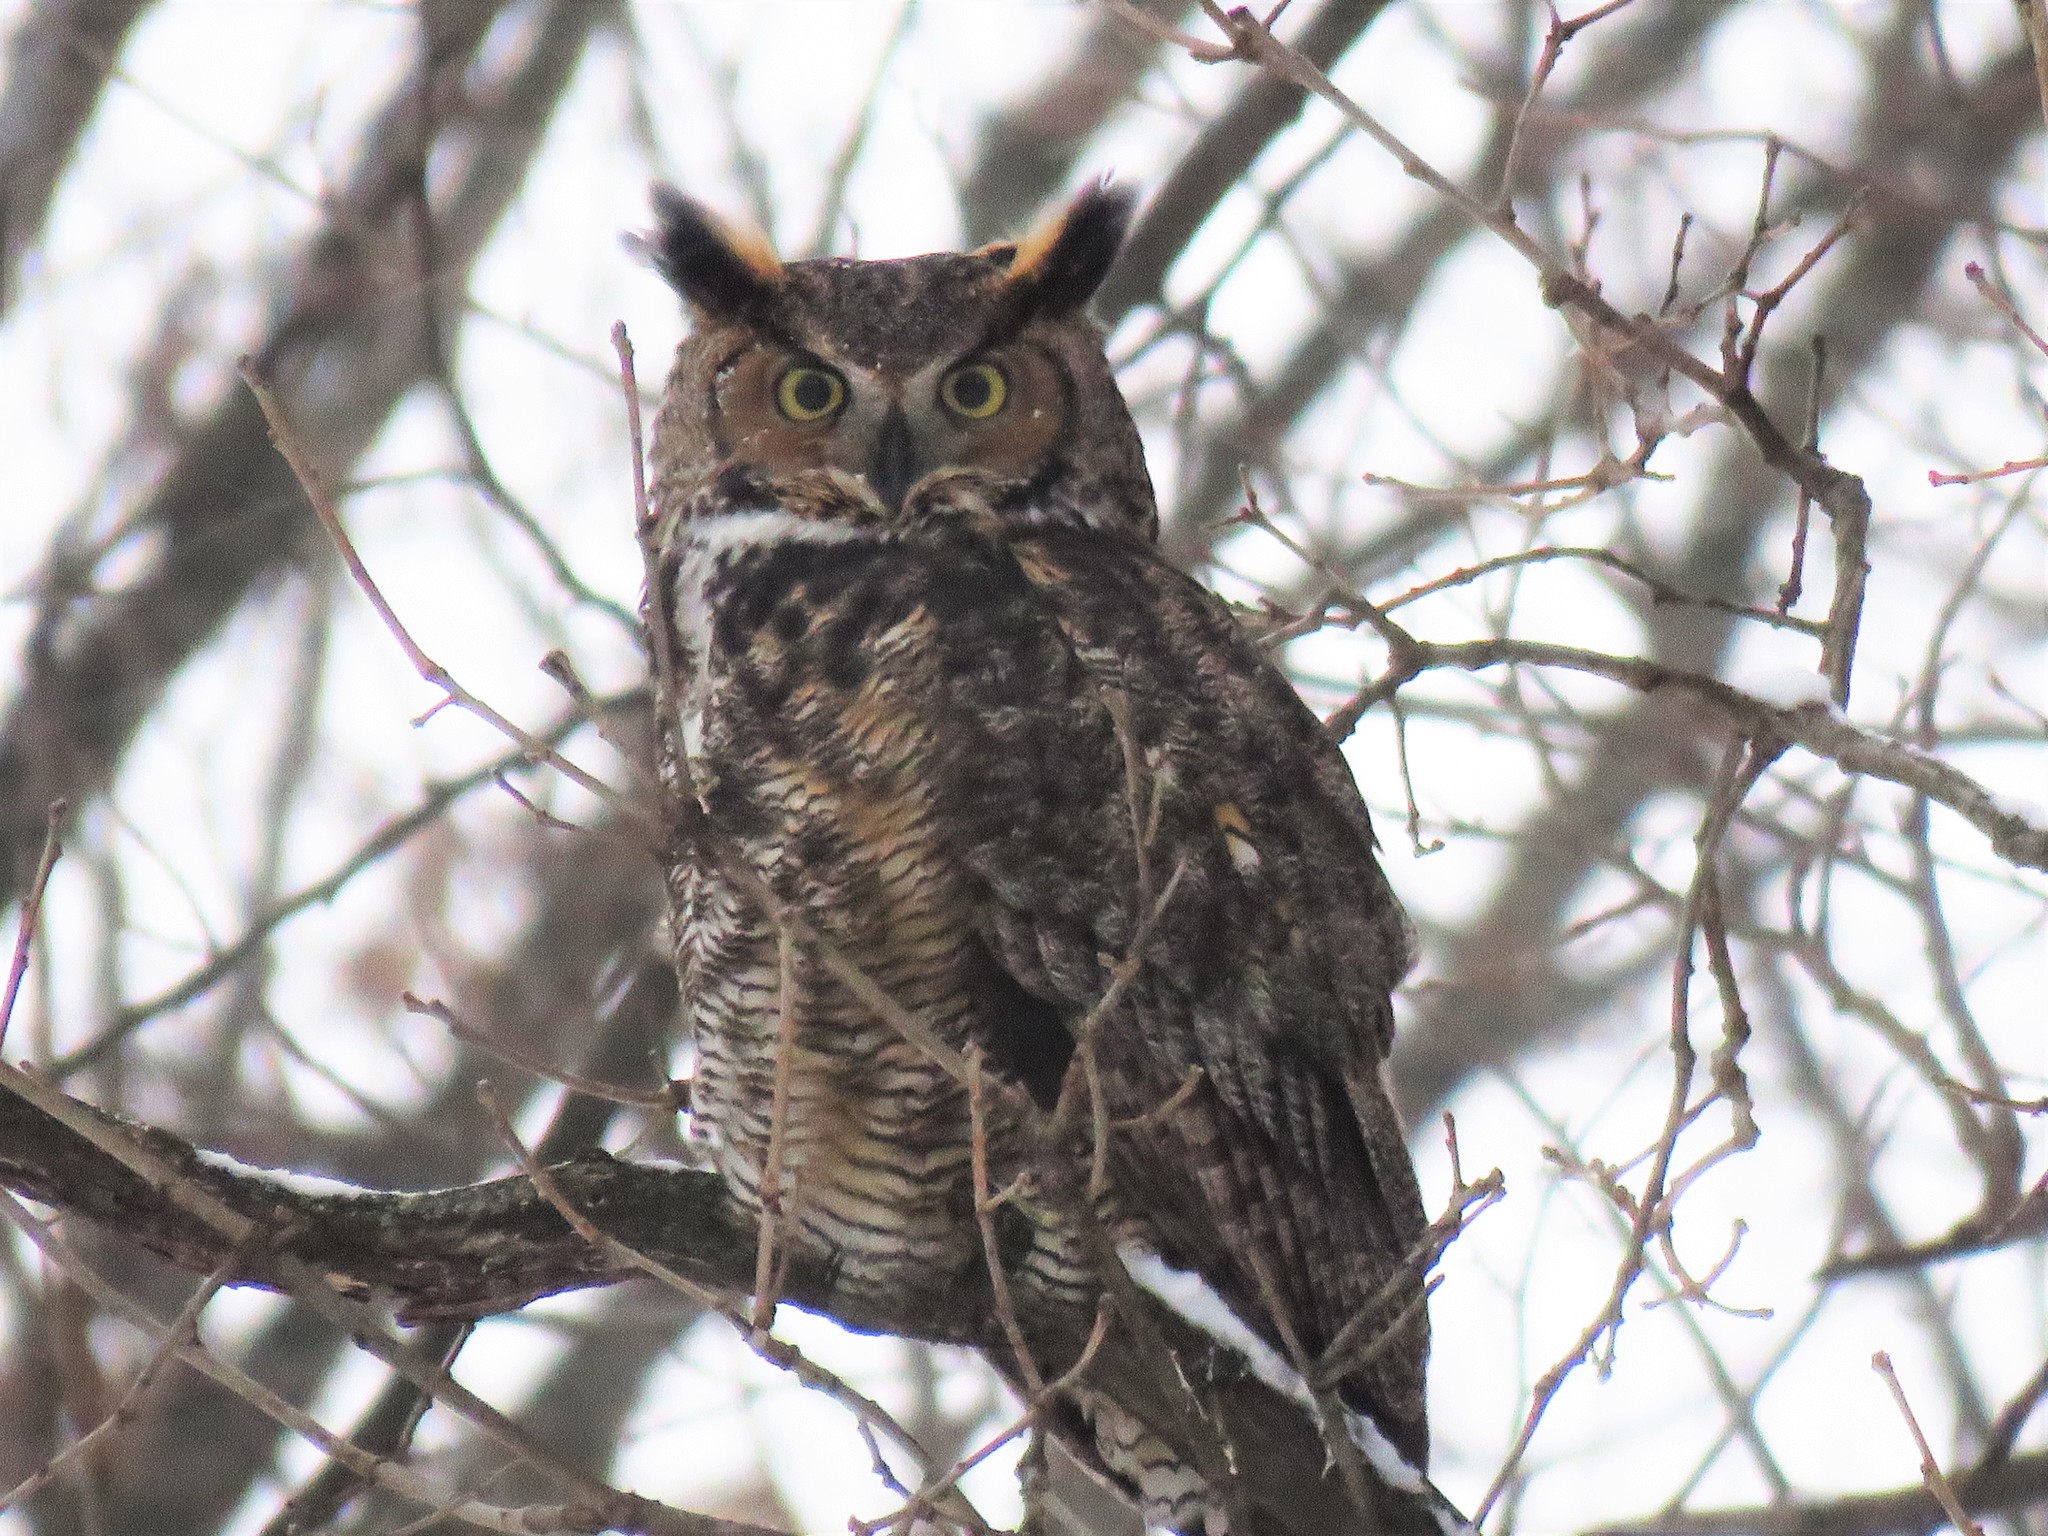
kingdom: Animalia
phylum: Chordata
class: Aves
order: Strigiformes
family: Strigidae
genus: Bubo
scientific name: Bubo virginianus
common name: Great horned owl
